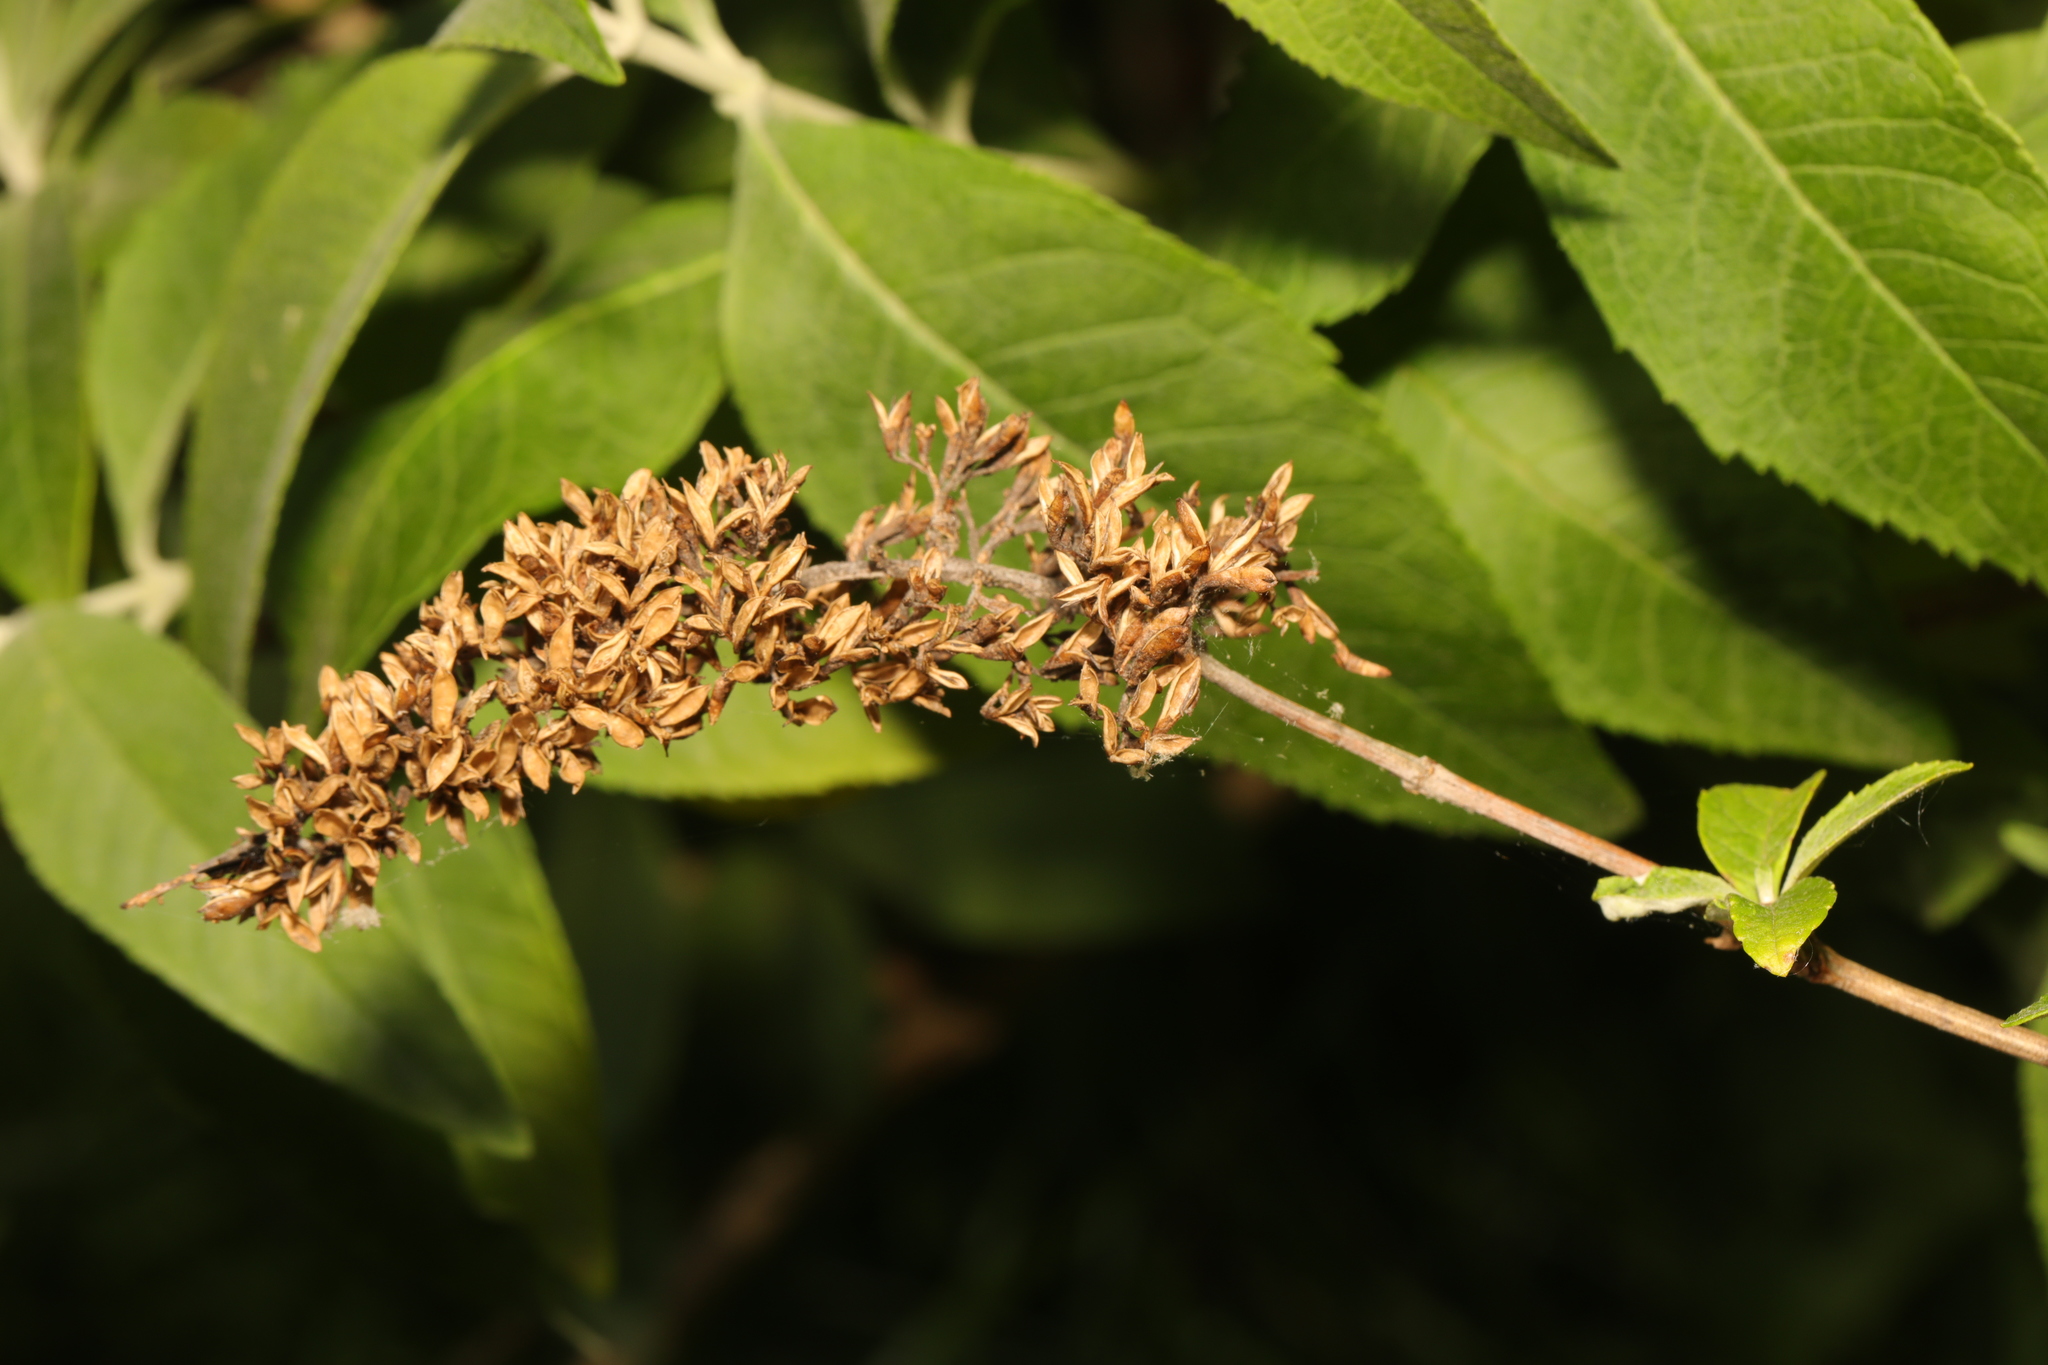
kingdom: Plantae
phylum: Tracheophyta
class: Magnoliopsida
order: Lamiales
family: Scrophulariaceae
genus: Buddleja
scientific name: Buddleja davidii
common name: Butterfly-bush
